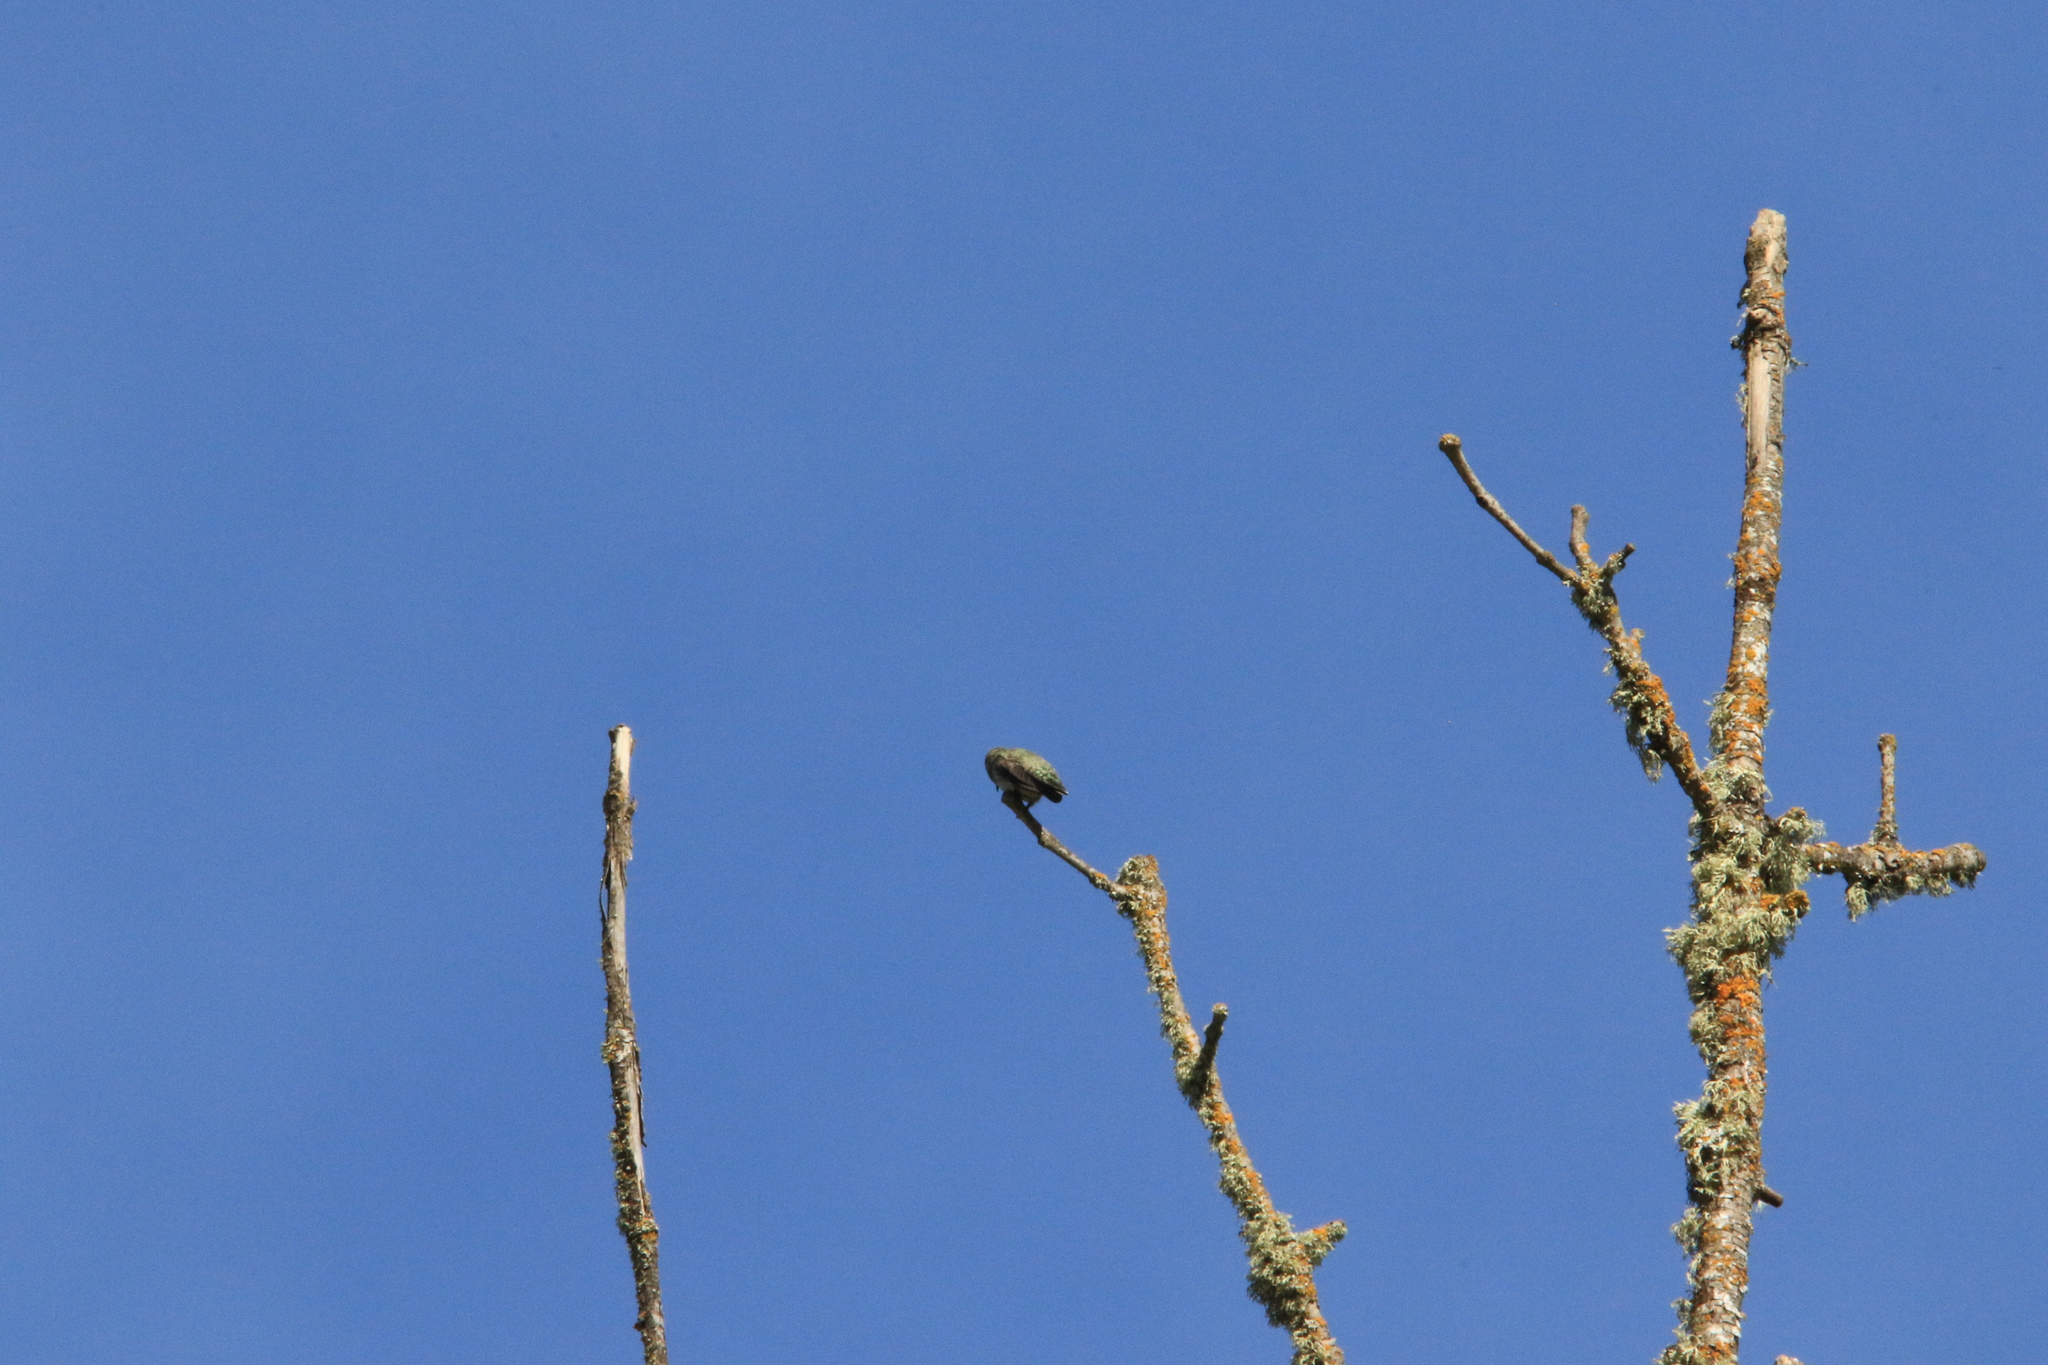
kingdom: Animalia
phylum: Chordata
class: Aves
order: Apodiformes
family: Trochilidae
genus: Calypte
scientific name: Calypte anna
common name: Anna's hummingbird
